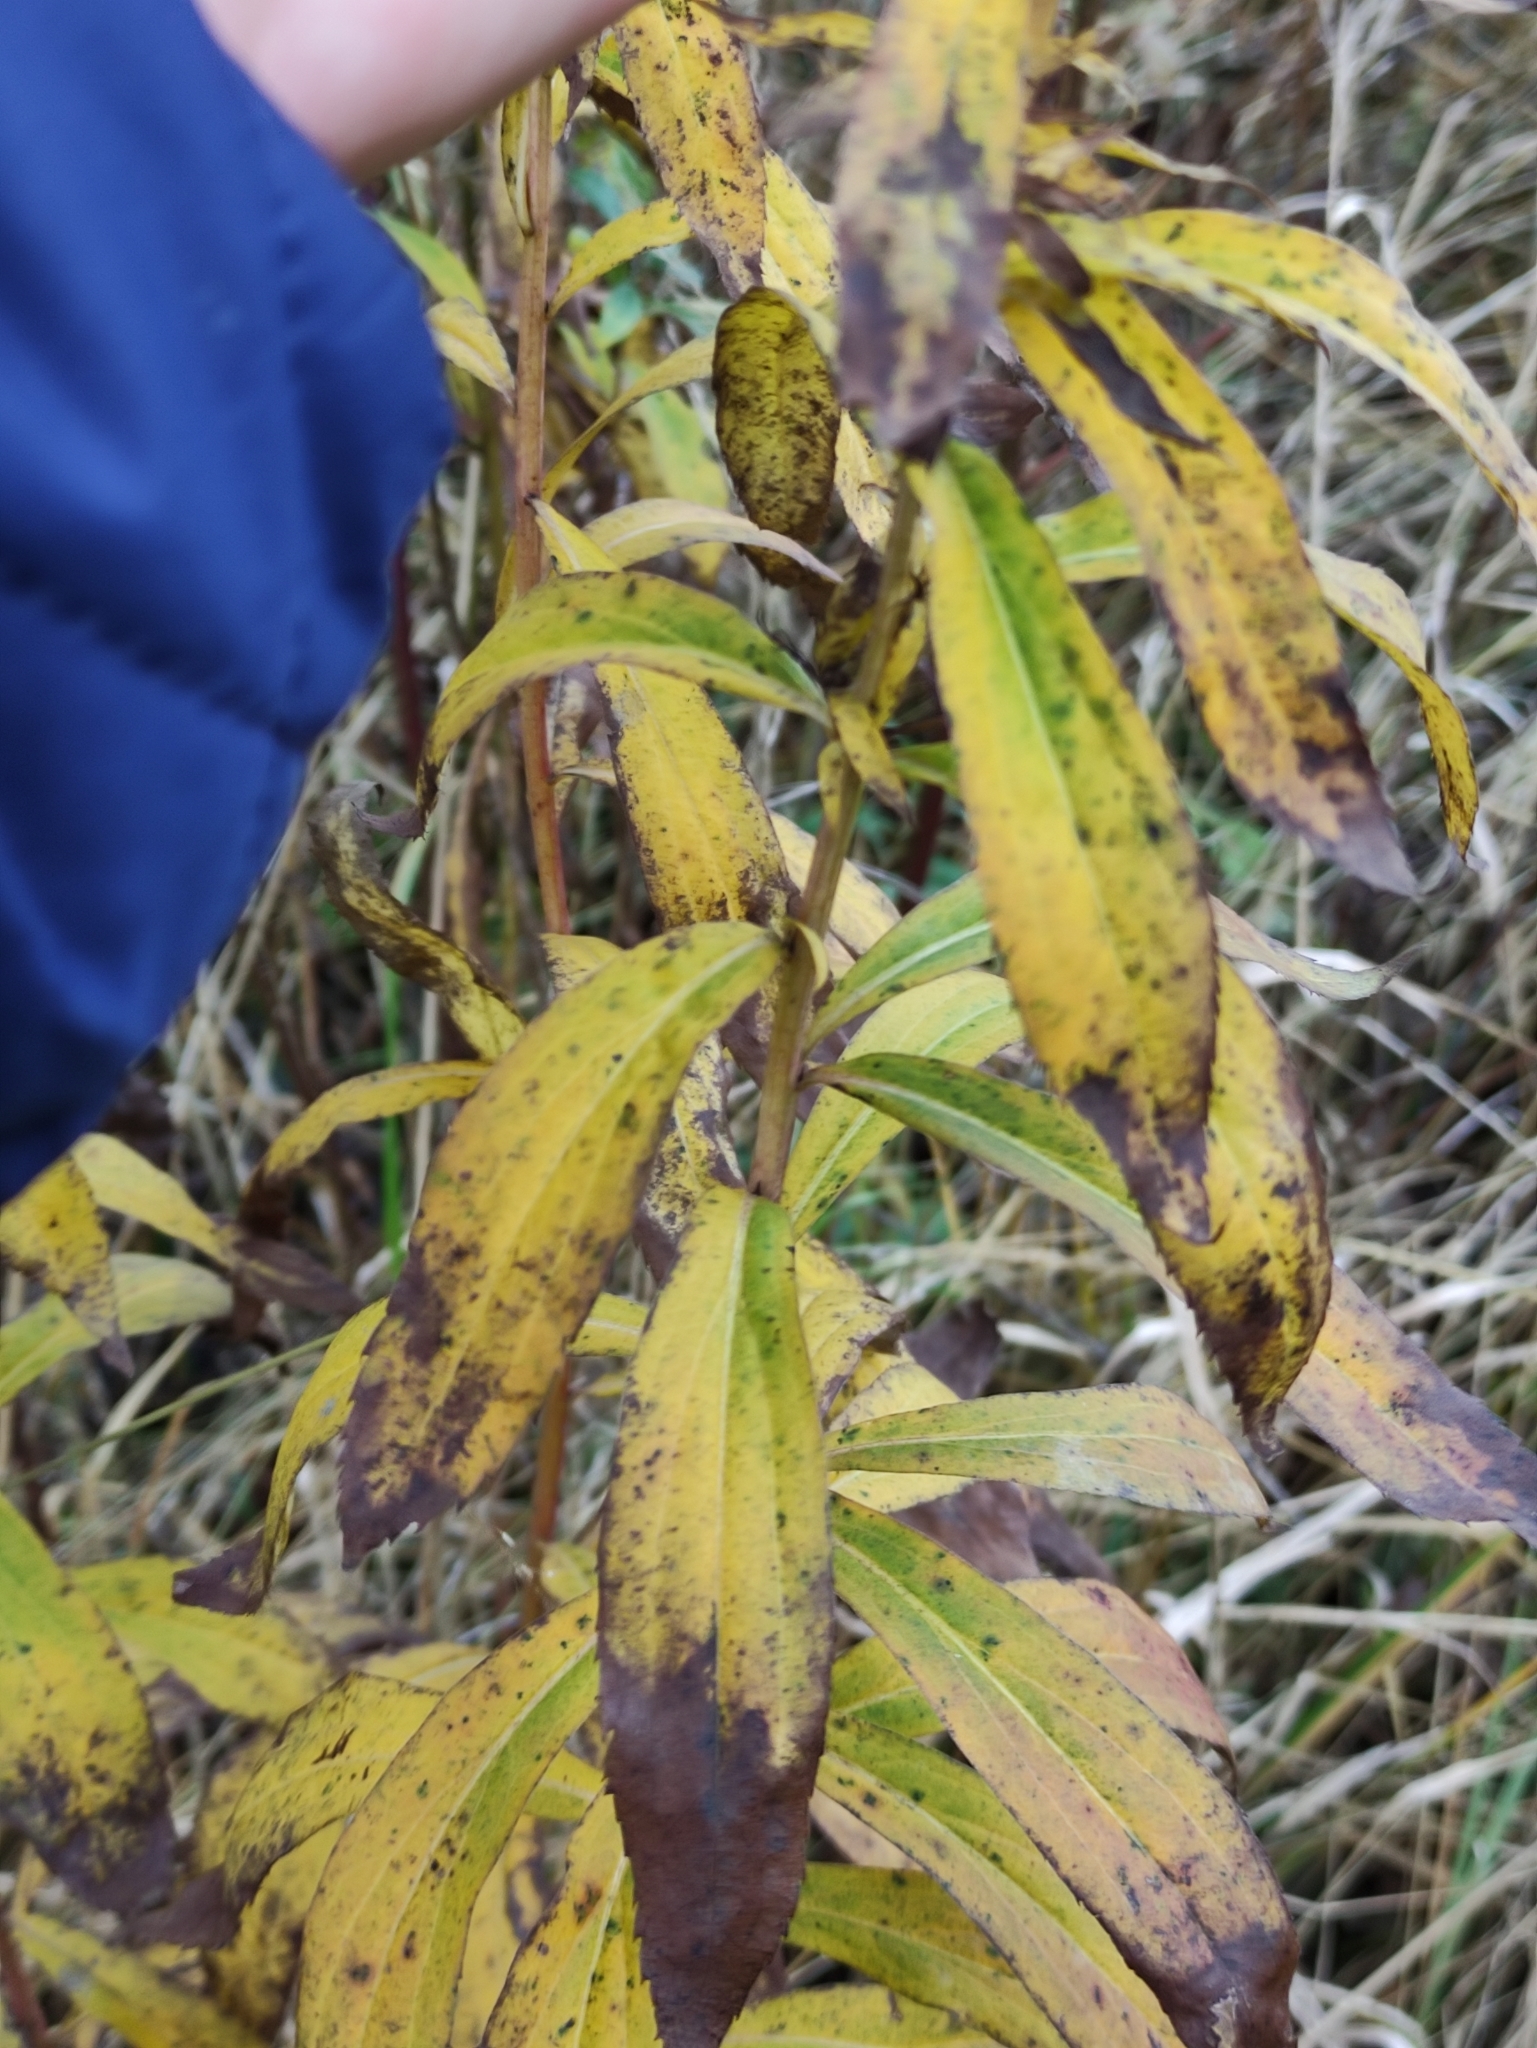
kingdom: Plantae
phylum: Tracheophyta
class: Magnoliopsida
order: Asterales
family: Asteraceae
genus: Solidago
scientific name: Solidago gigantea
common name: Giant goldenrod
